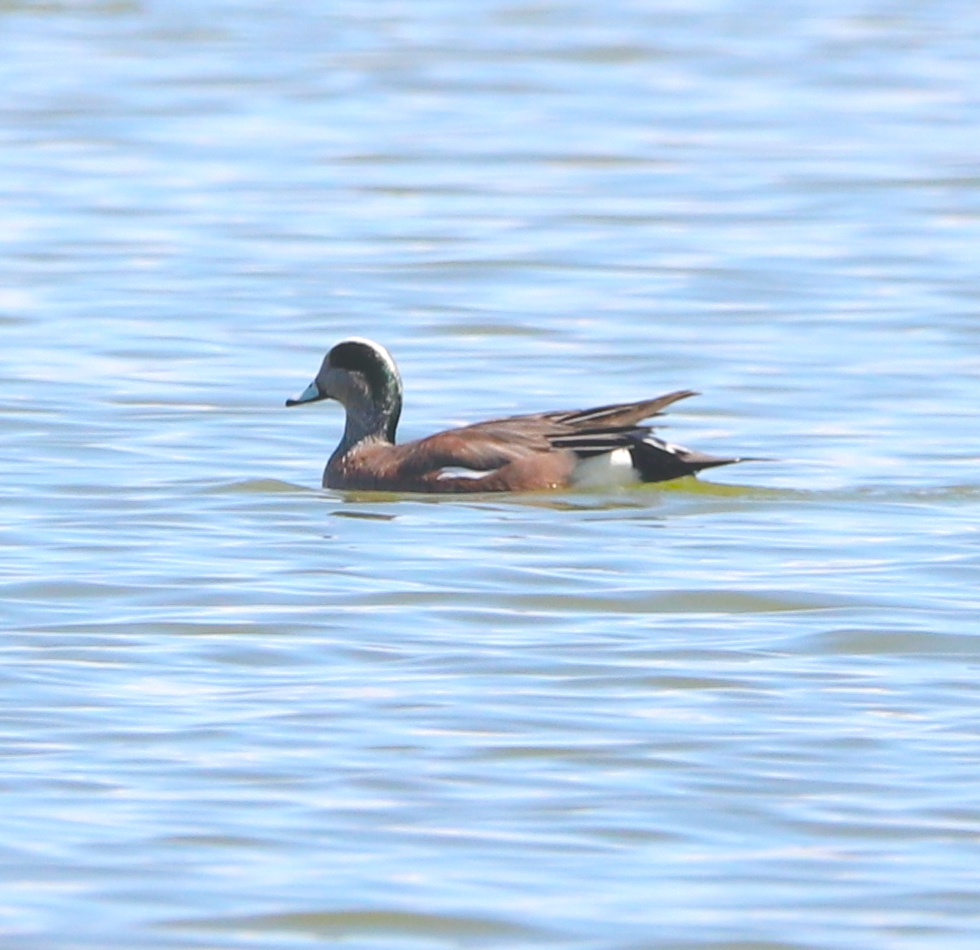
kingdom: Animalia
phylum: Chordata
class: Aves
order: Anseriformes
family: Anatidae
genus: Mareca
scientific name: Mareca americana
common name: American wigeon
